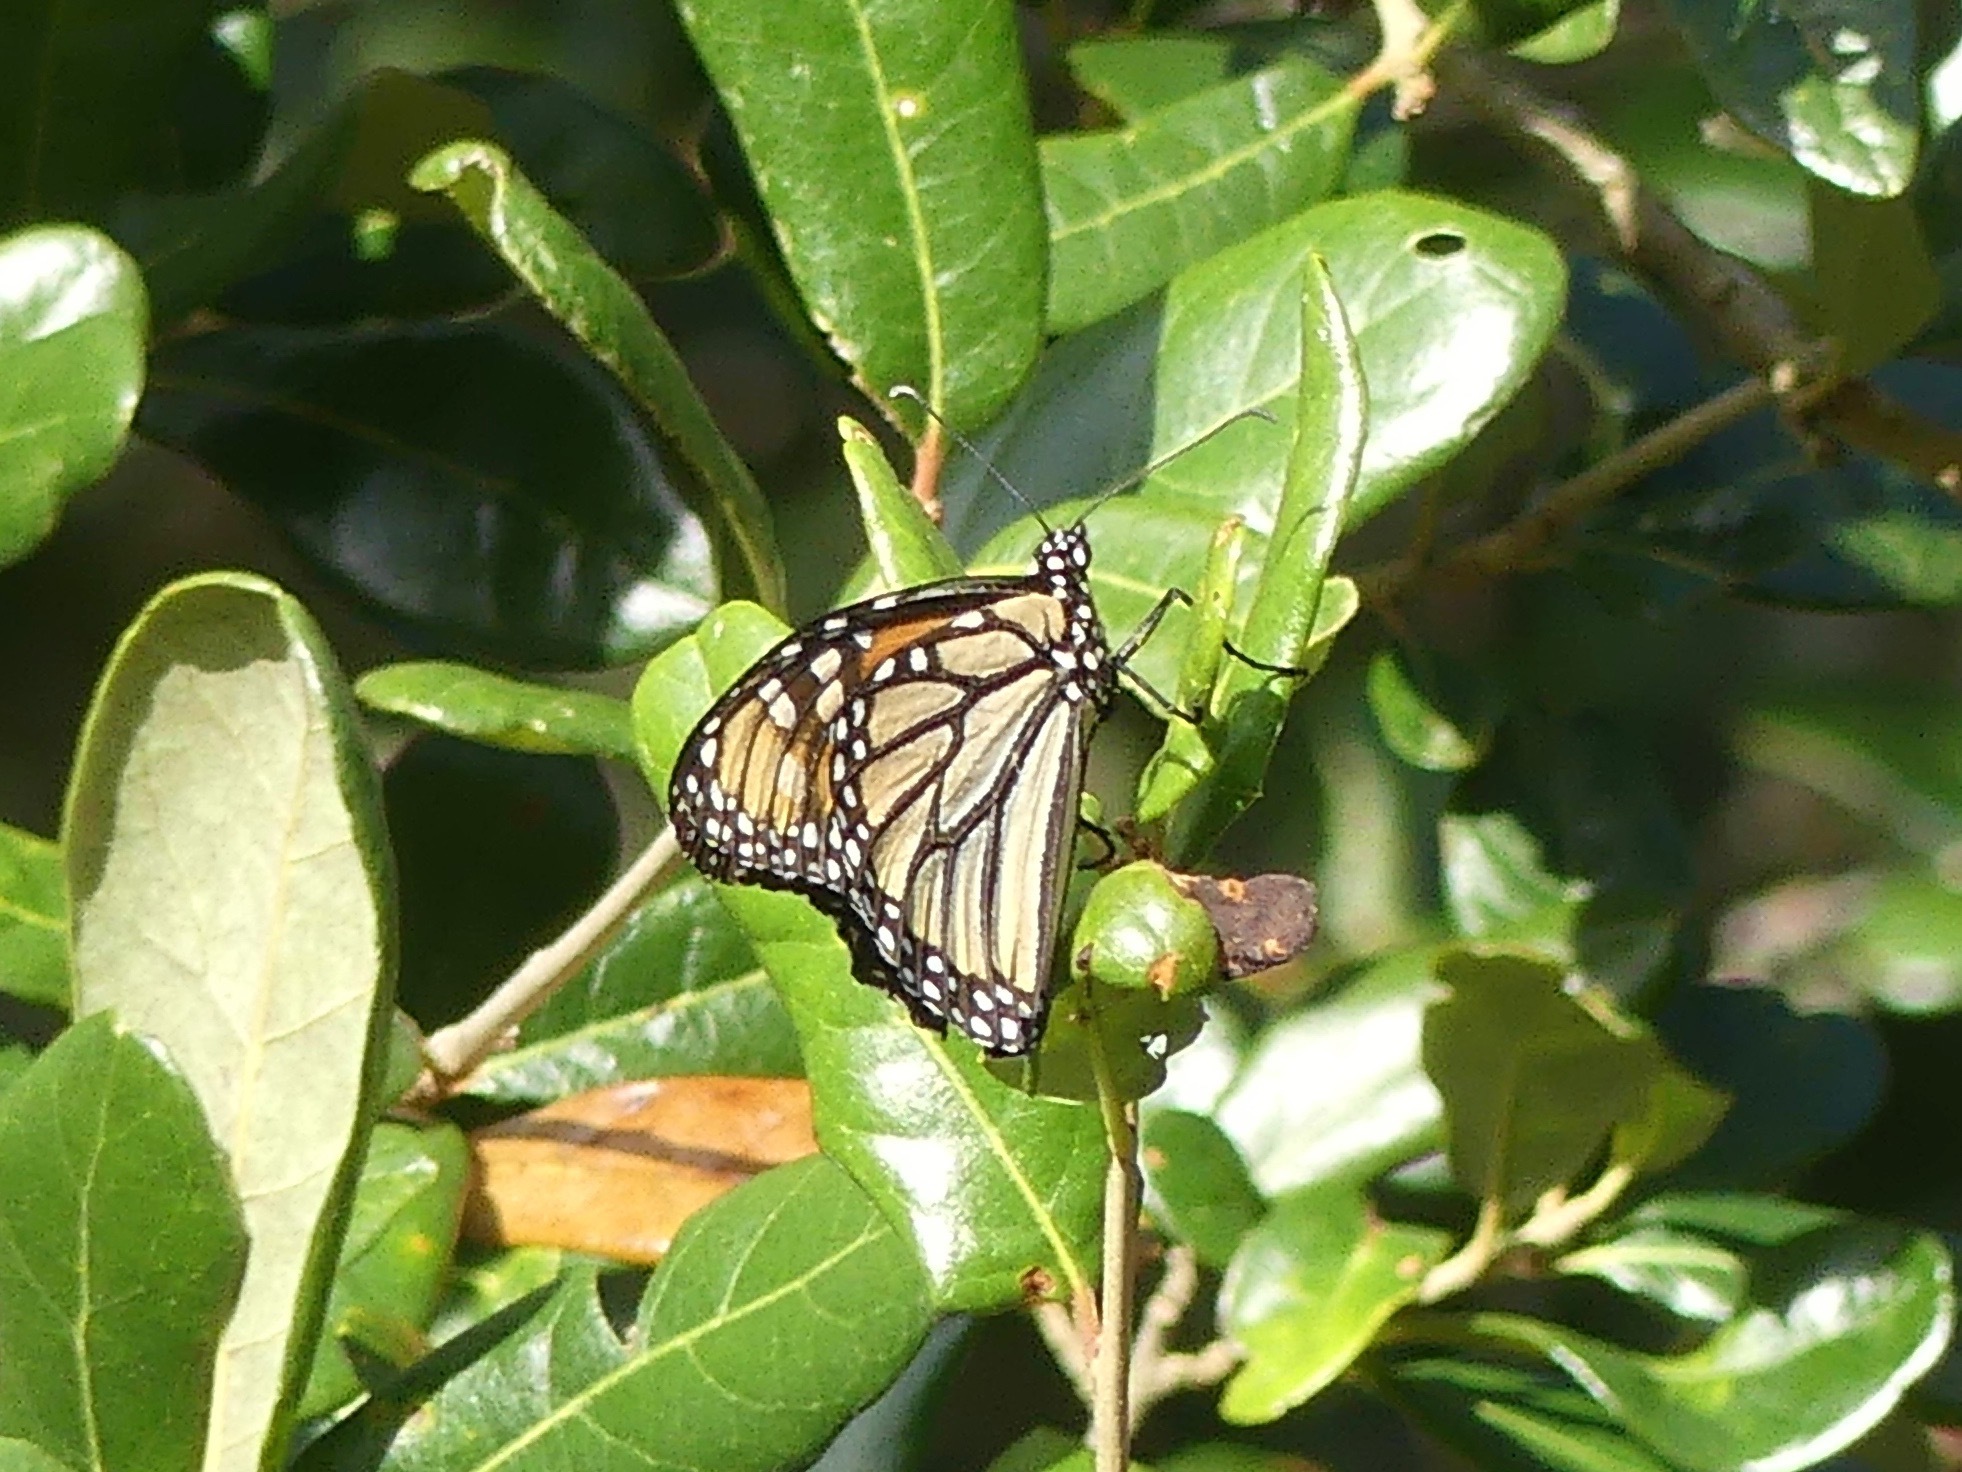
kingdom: Animalia
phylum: Arthropoda
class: Insecta
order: Lepidoptera
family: Nymphalidae
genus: Danaus
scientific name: Danaus plexippus
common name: Monarch
